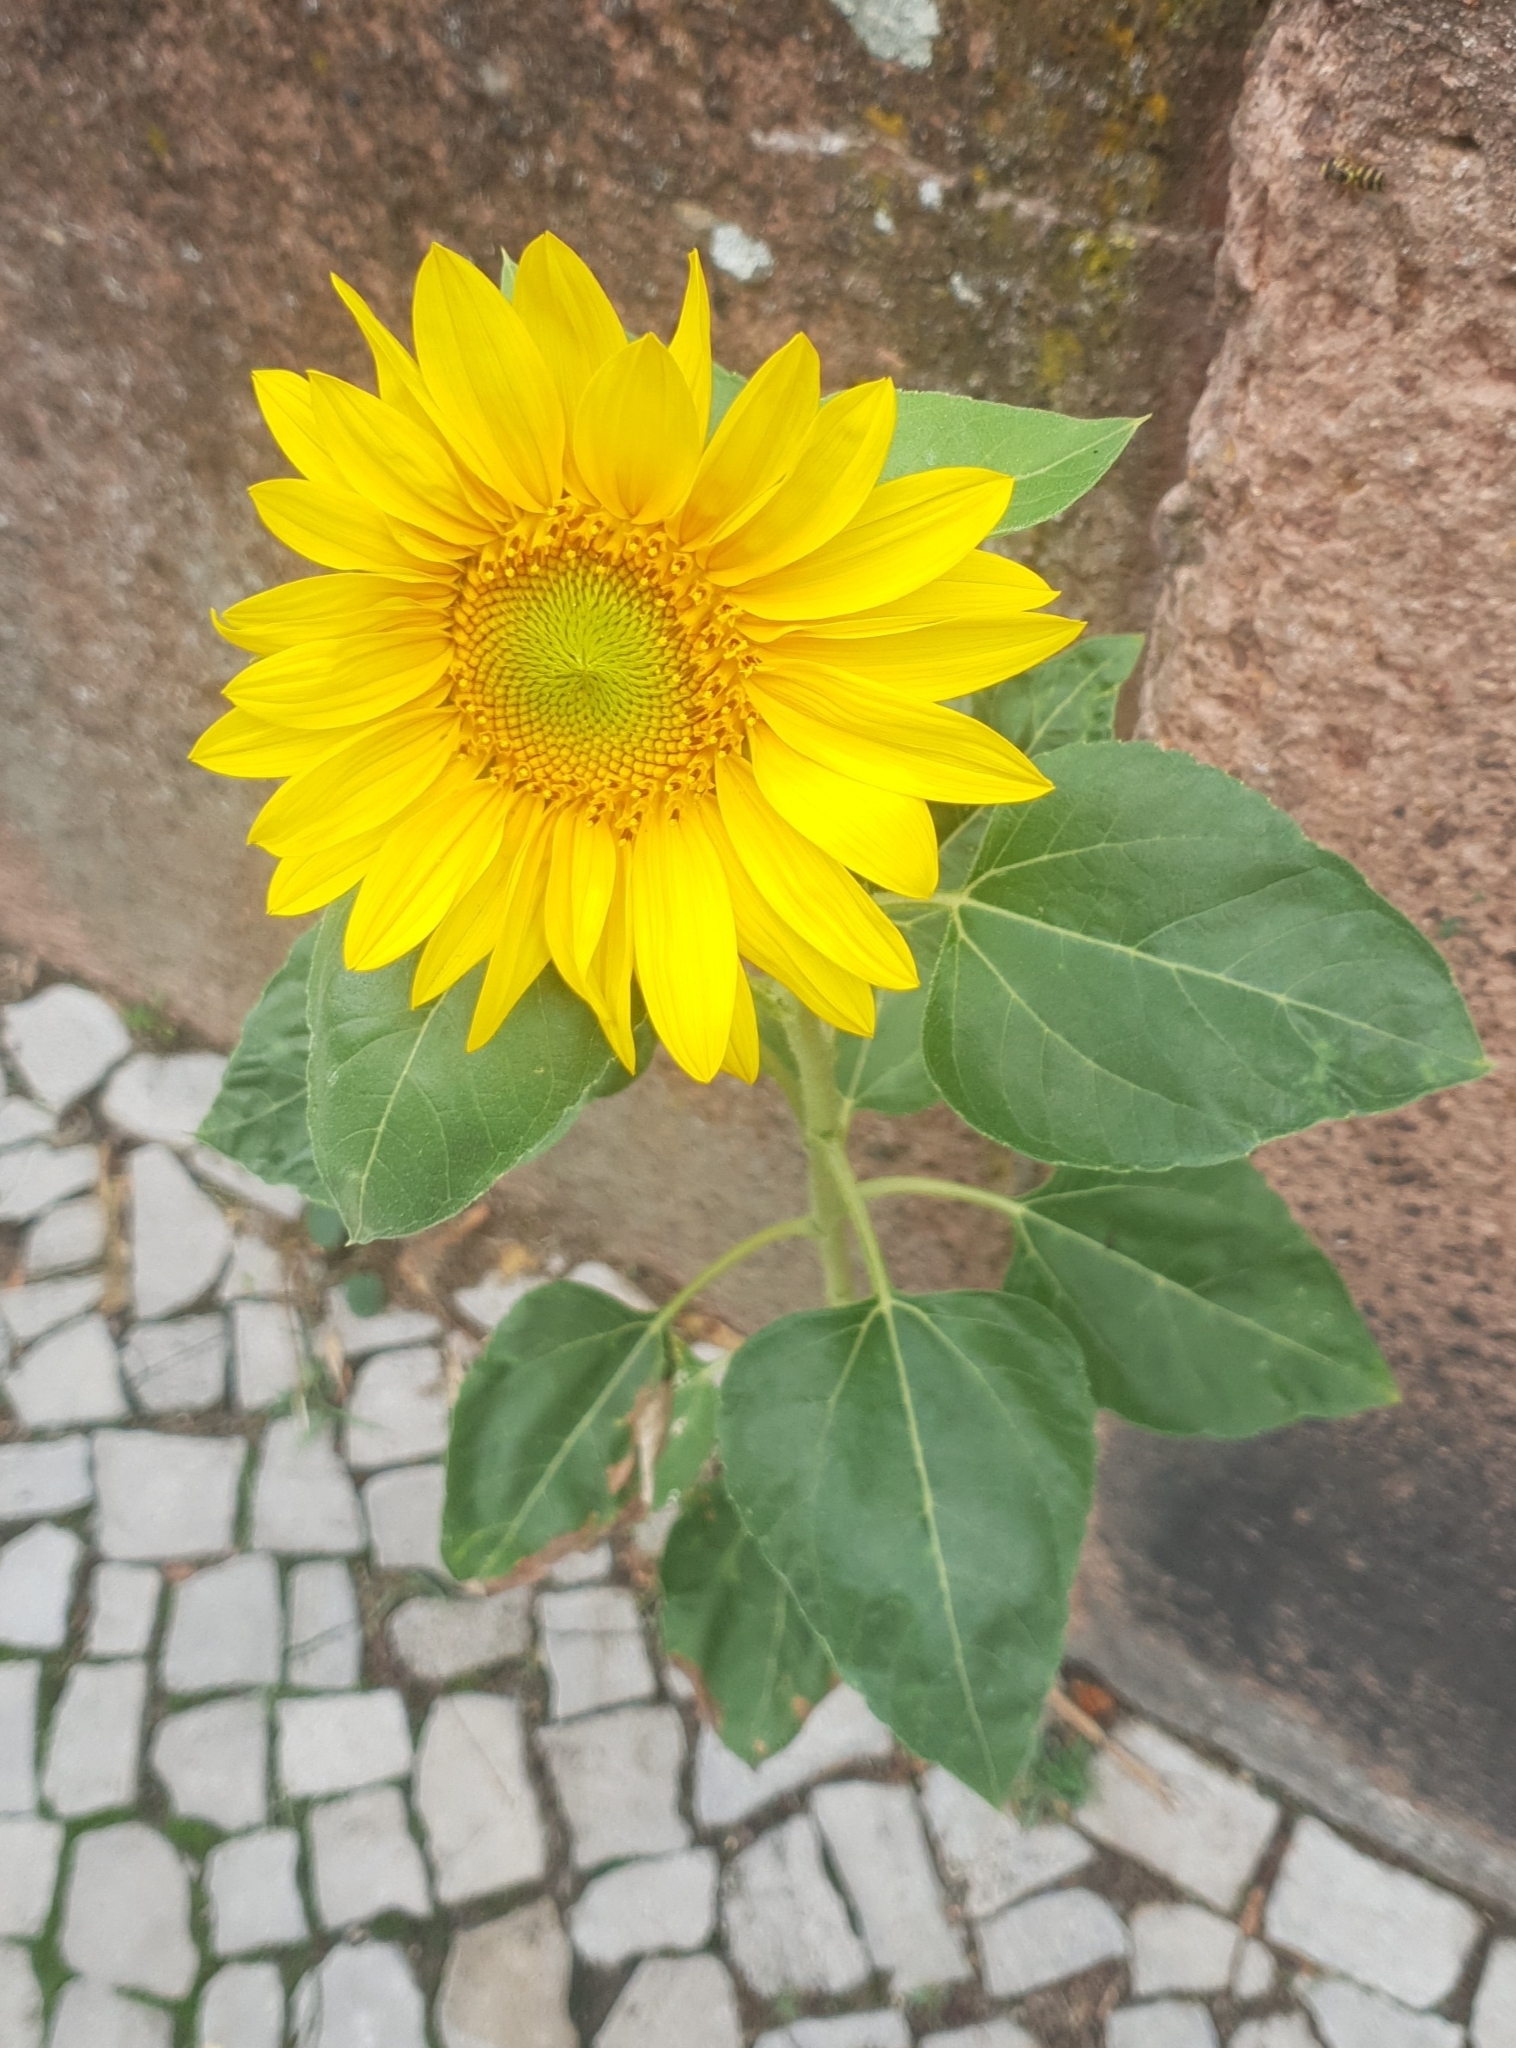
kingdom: Plantae
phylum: Tracheophyta
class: Magnoliopsida
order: Asterales
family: Asteraceae
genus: Helianthus
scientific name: Helianthus annuus
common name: Sunflower
